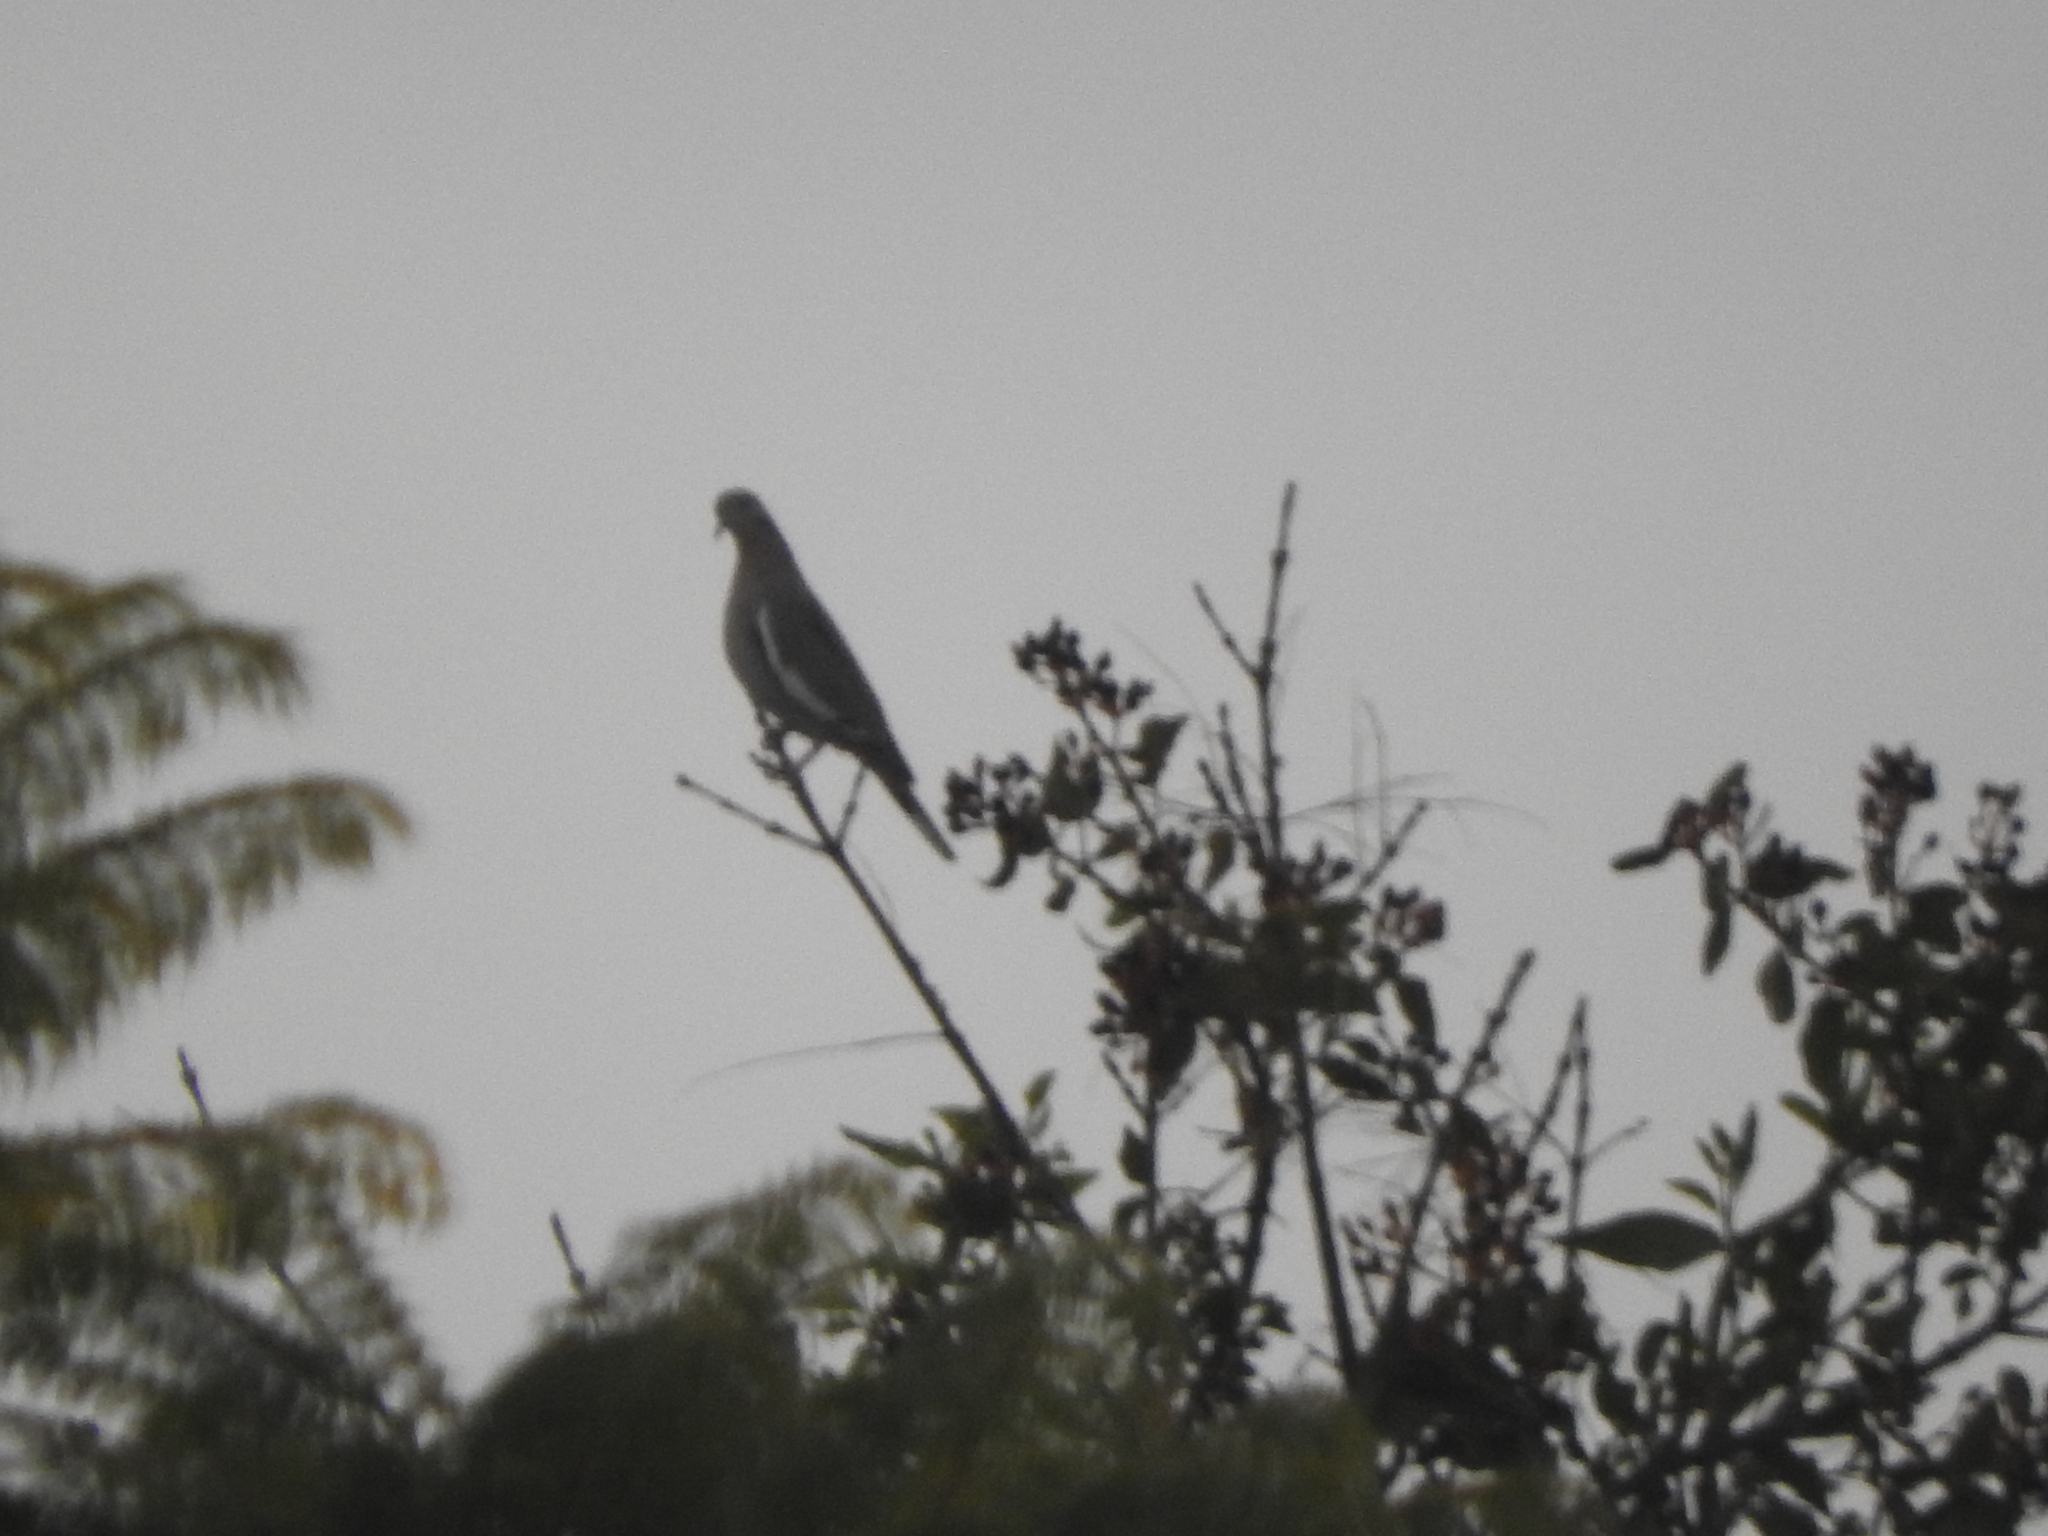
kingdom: Animalia
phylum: Chordata
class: Aves
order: Columbiformes
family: Columbidae
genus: Zenaida
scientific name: Zenaida asiatica
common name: White-winged dove
